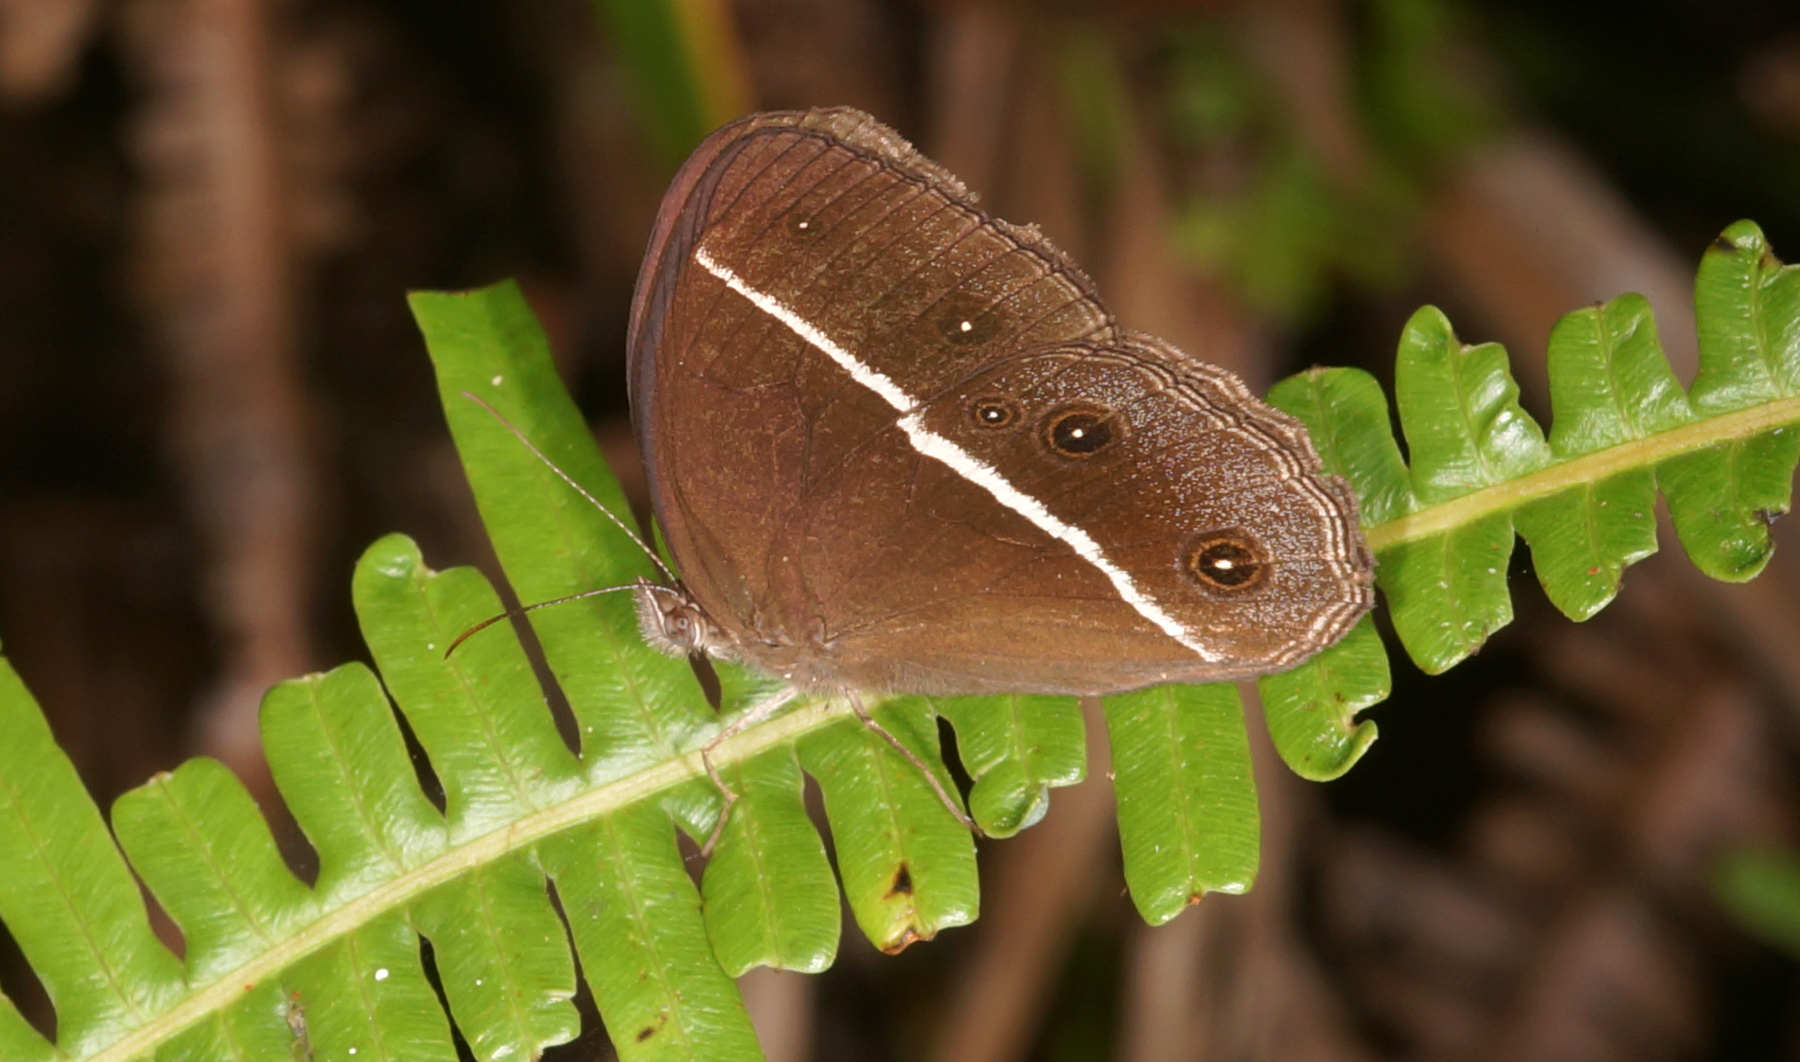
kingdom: Animalia
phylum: Arthropoda
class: Insecta
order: Lepidoptera
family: Nymphalidae
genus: Orsotriaena
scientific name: Orsotriaena medus
